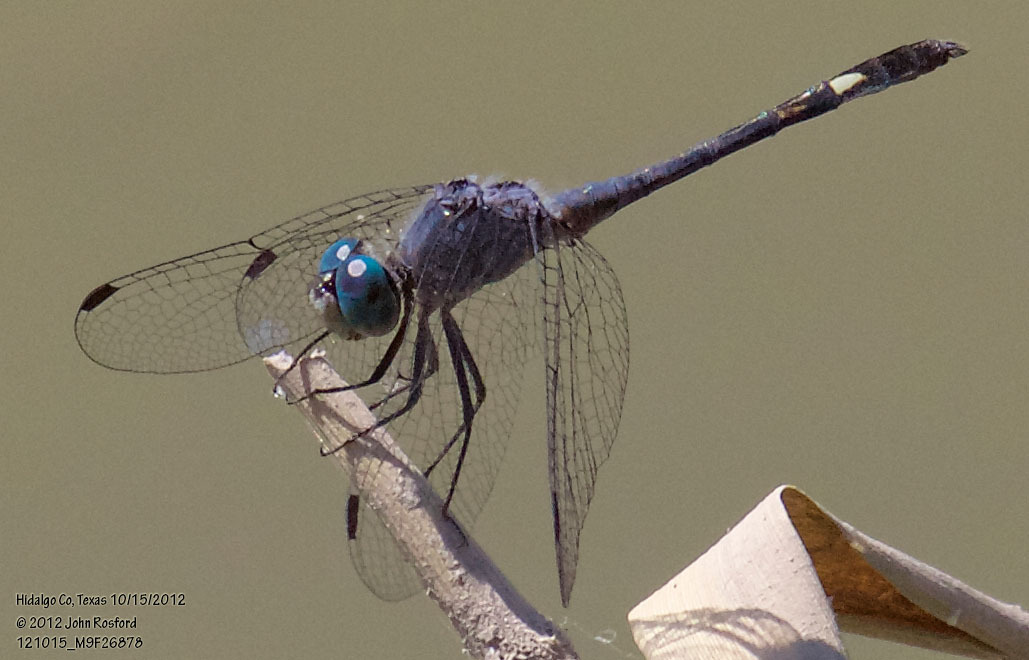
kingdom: Animalia
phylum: Arthropoda
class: Insecta
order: Odonata
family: Libellulidae
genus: Micrathyria
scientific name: Micrathyria aequalis
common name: Spot-tailed dasher
